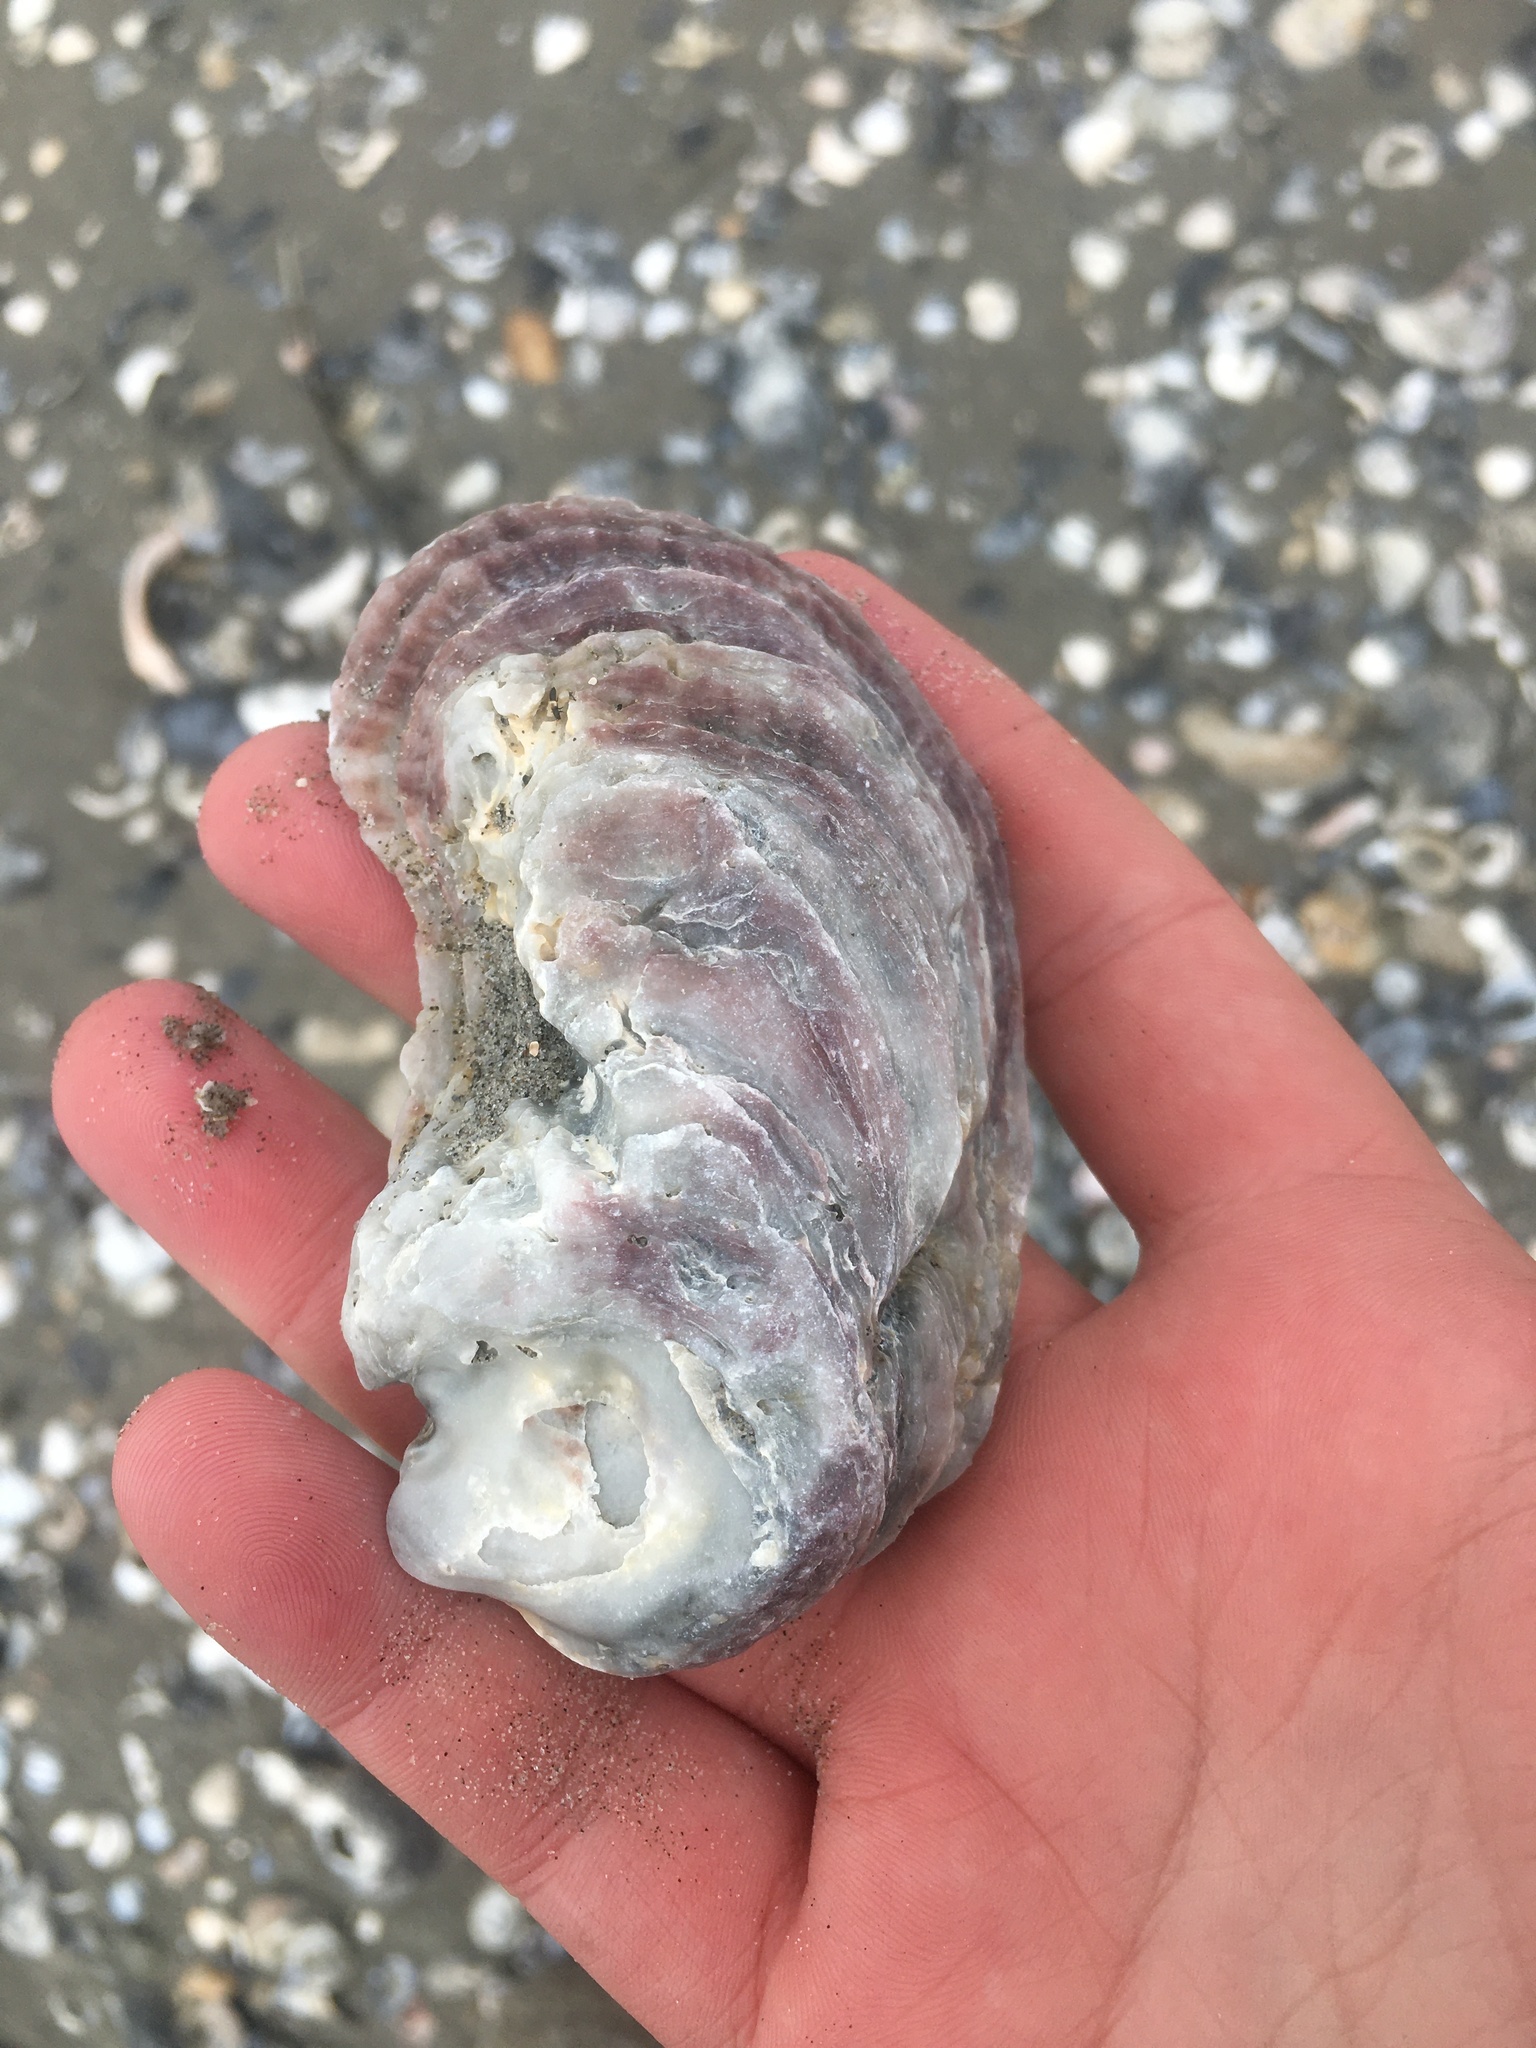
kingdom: Animalia
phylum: Mollusca
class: Bivalvia
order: Ostreida
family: Ostreidae
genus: Crassostrea
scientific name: Crassostrea virginica
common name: American oyster
